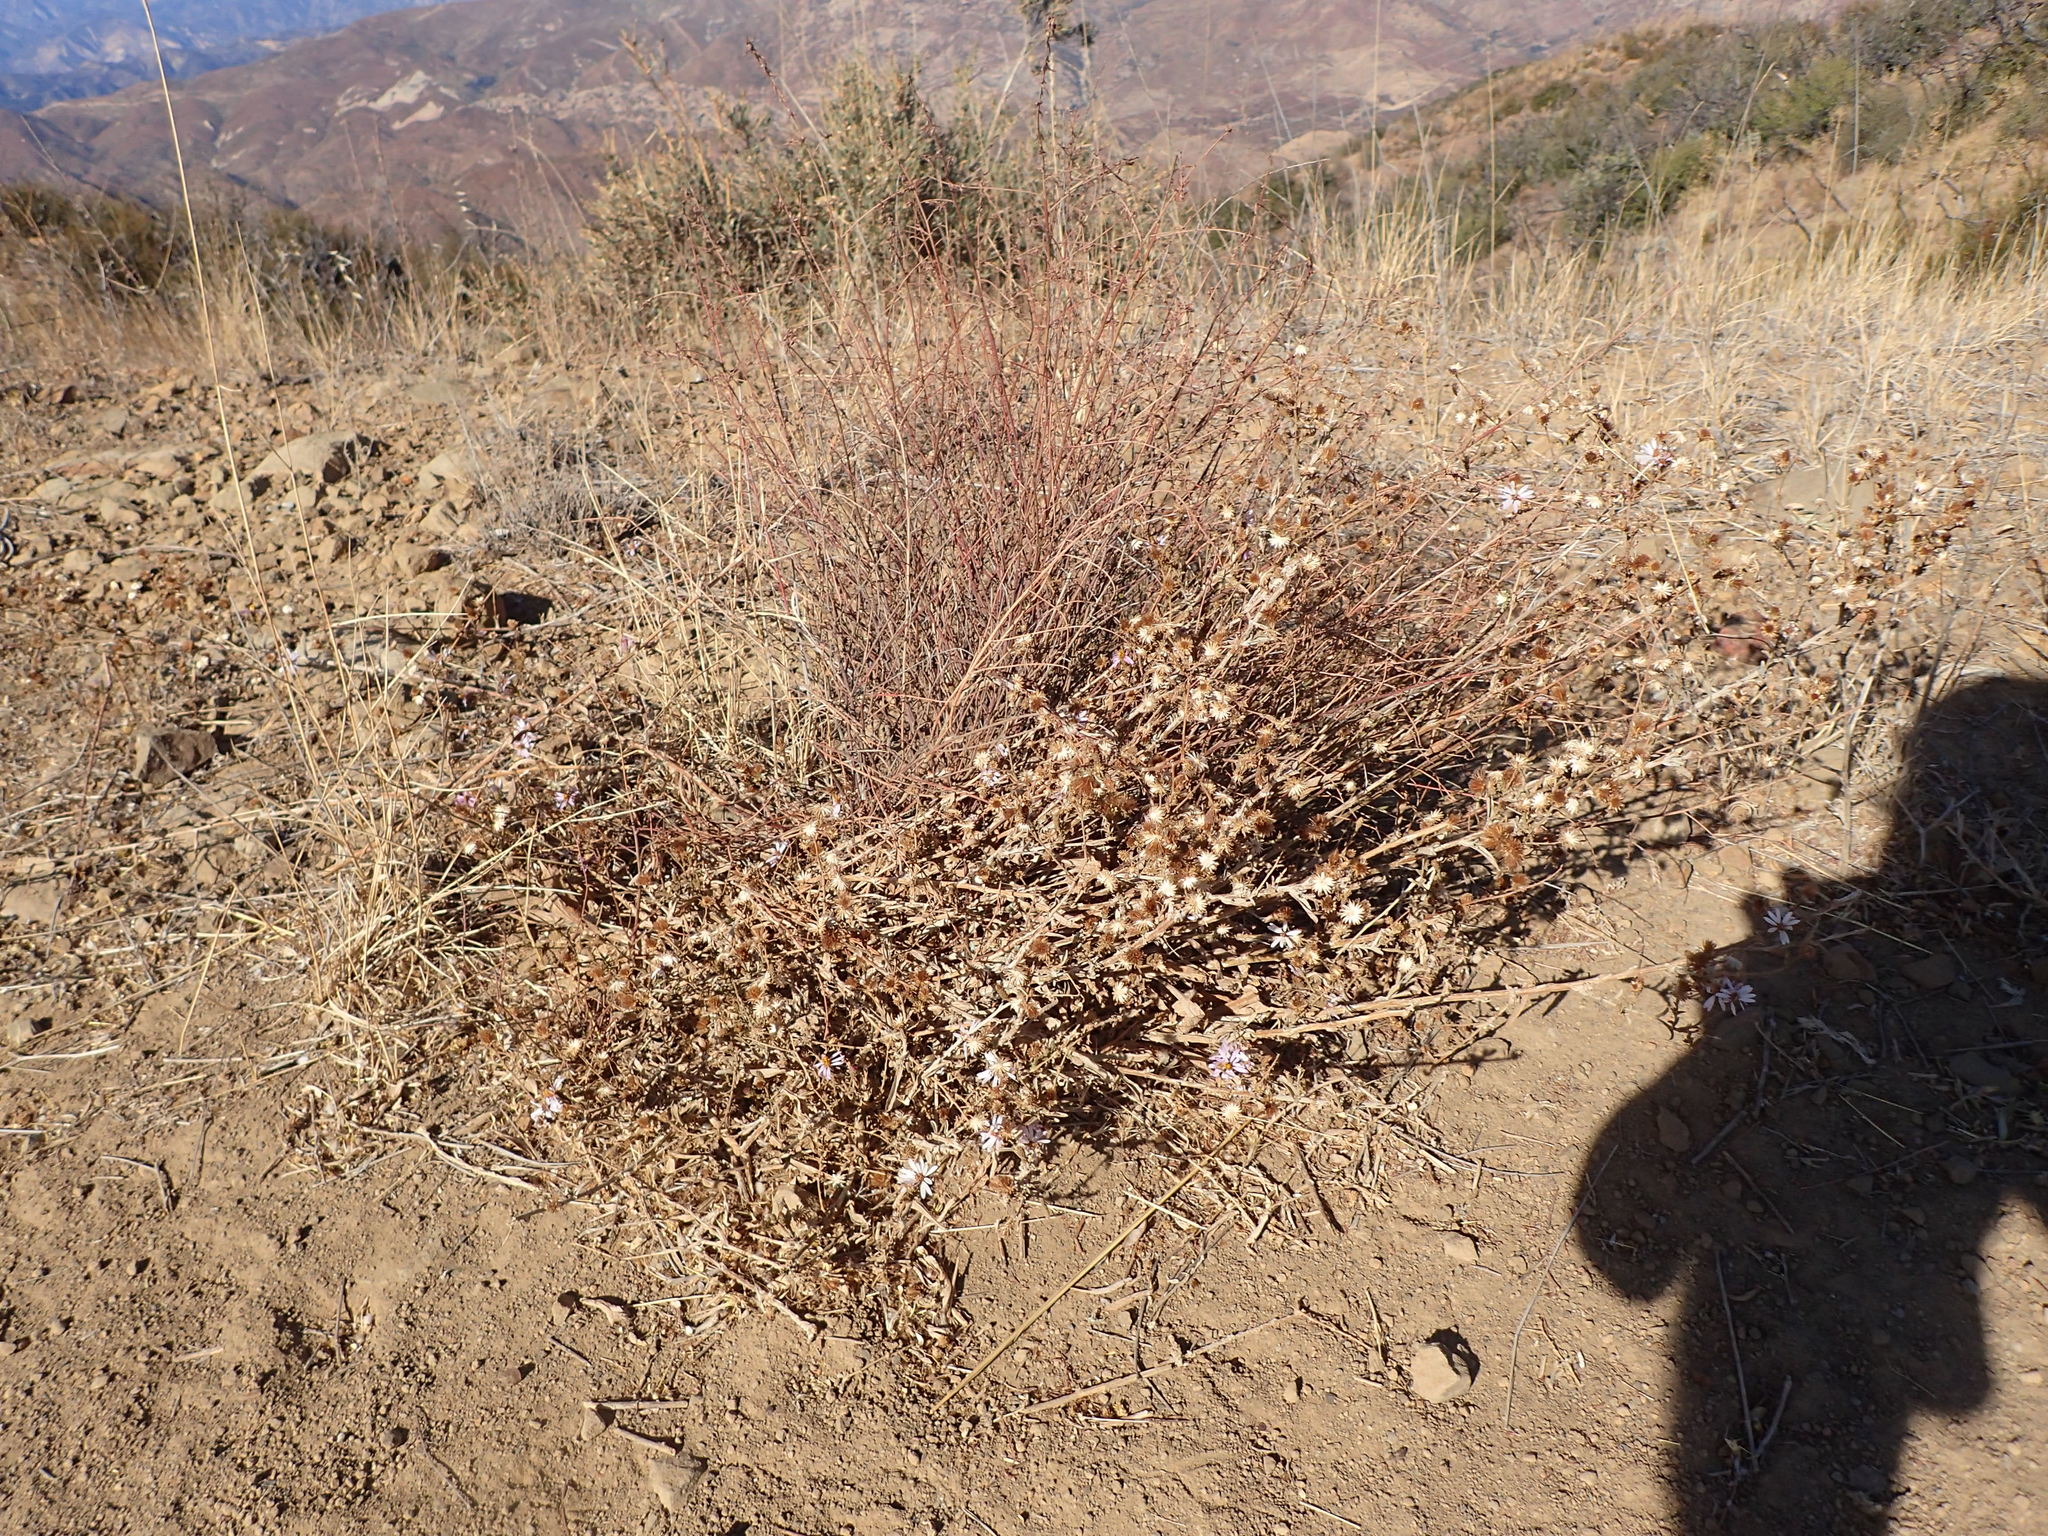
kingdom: Plantae
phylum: Tracheophyta
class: Magnoliopsida
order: Asterales
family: Asteraceae
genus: Corethrogyne
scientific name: Corethrogyne filaginifolia
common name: Sand-aster
